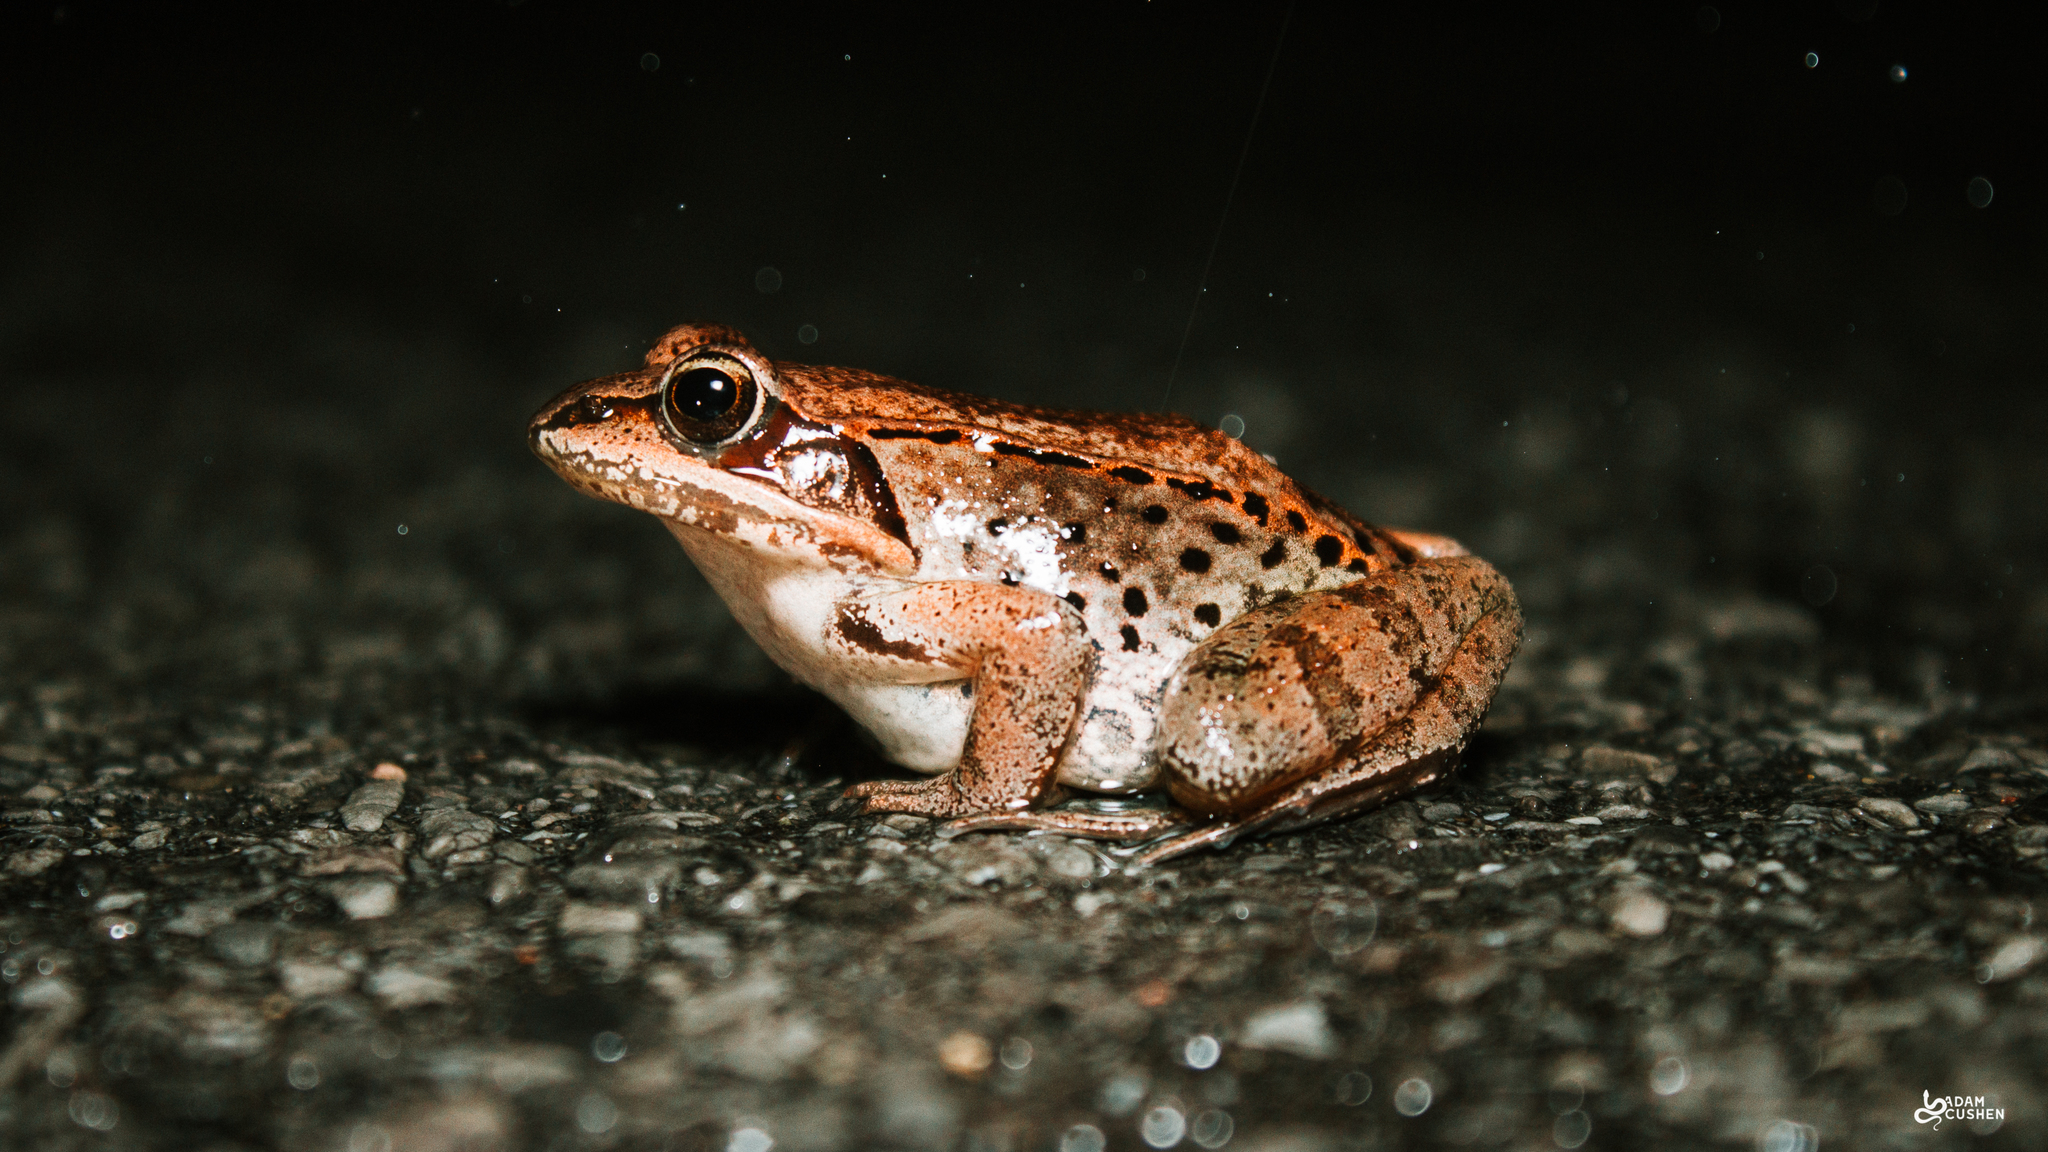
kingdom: Animalia
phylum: Chordata
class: Amphibia
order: Anura
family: Ranidae
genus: Lithobates
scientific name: Lithobates sylvaticus
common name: Wood frog
